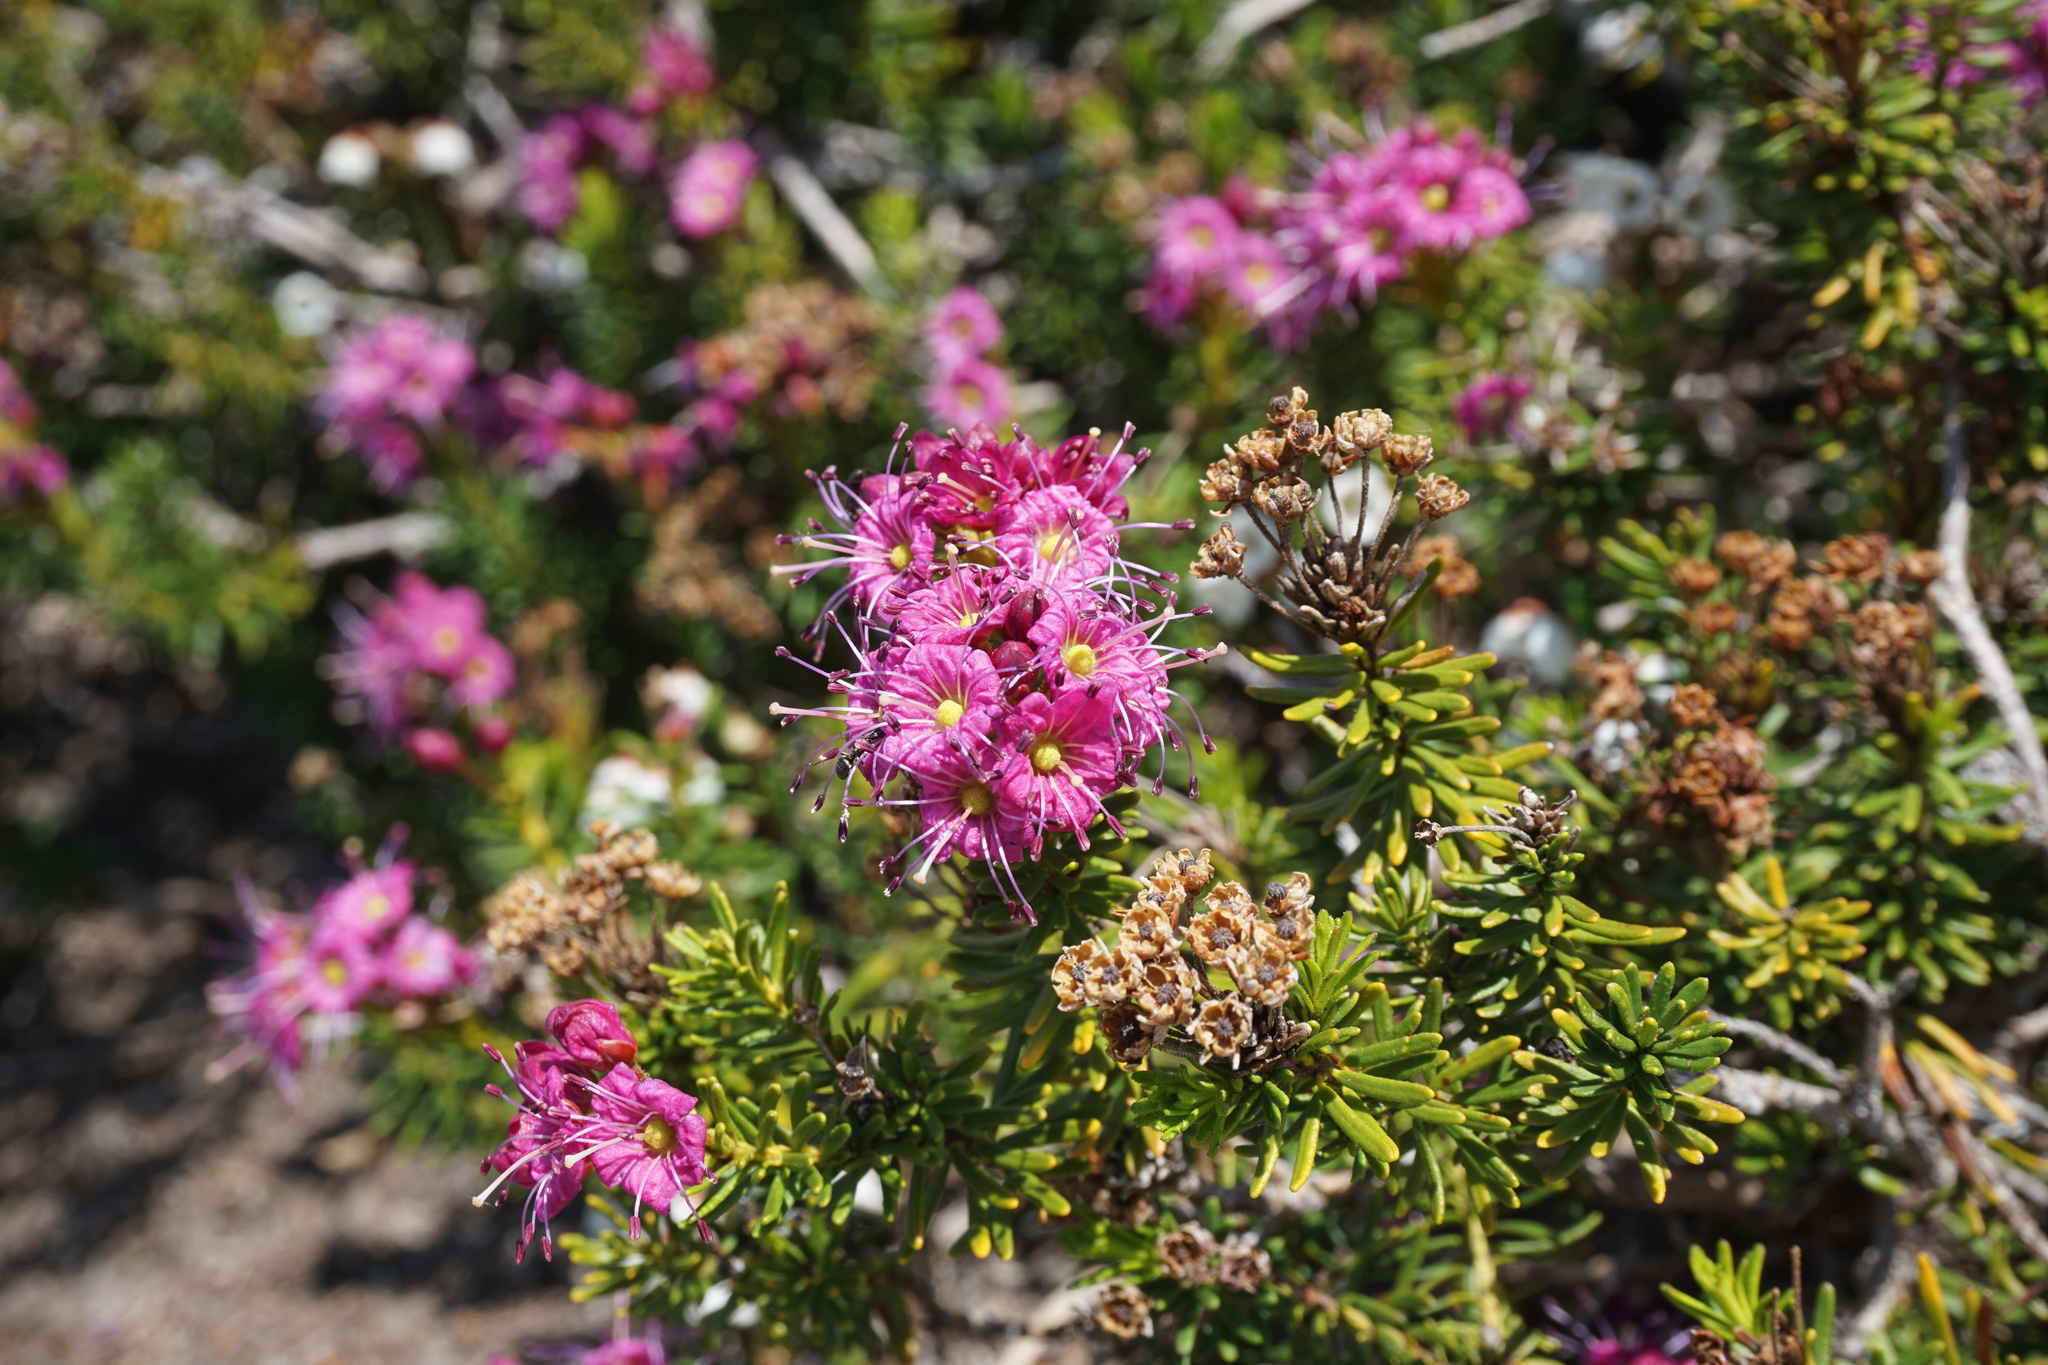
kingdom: Plantae
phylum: Tracheophyta
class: Magnoliopsida
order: Ericales
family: Ericaceae
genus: Phyllodoce
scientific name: Phyllodoce breweri
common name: Brewer's mountain-heather
